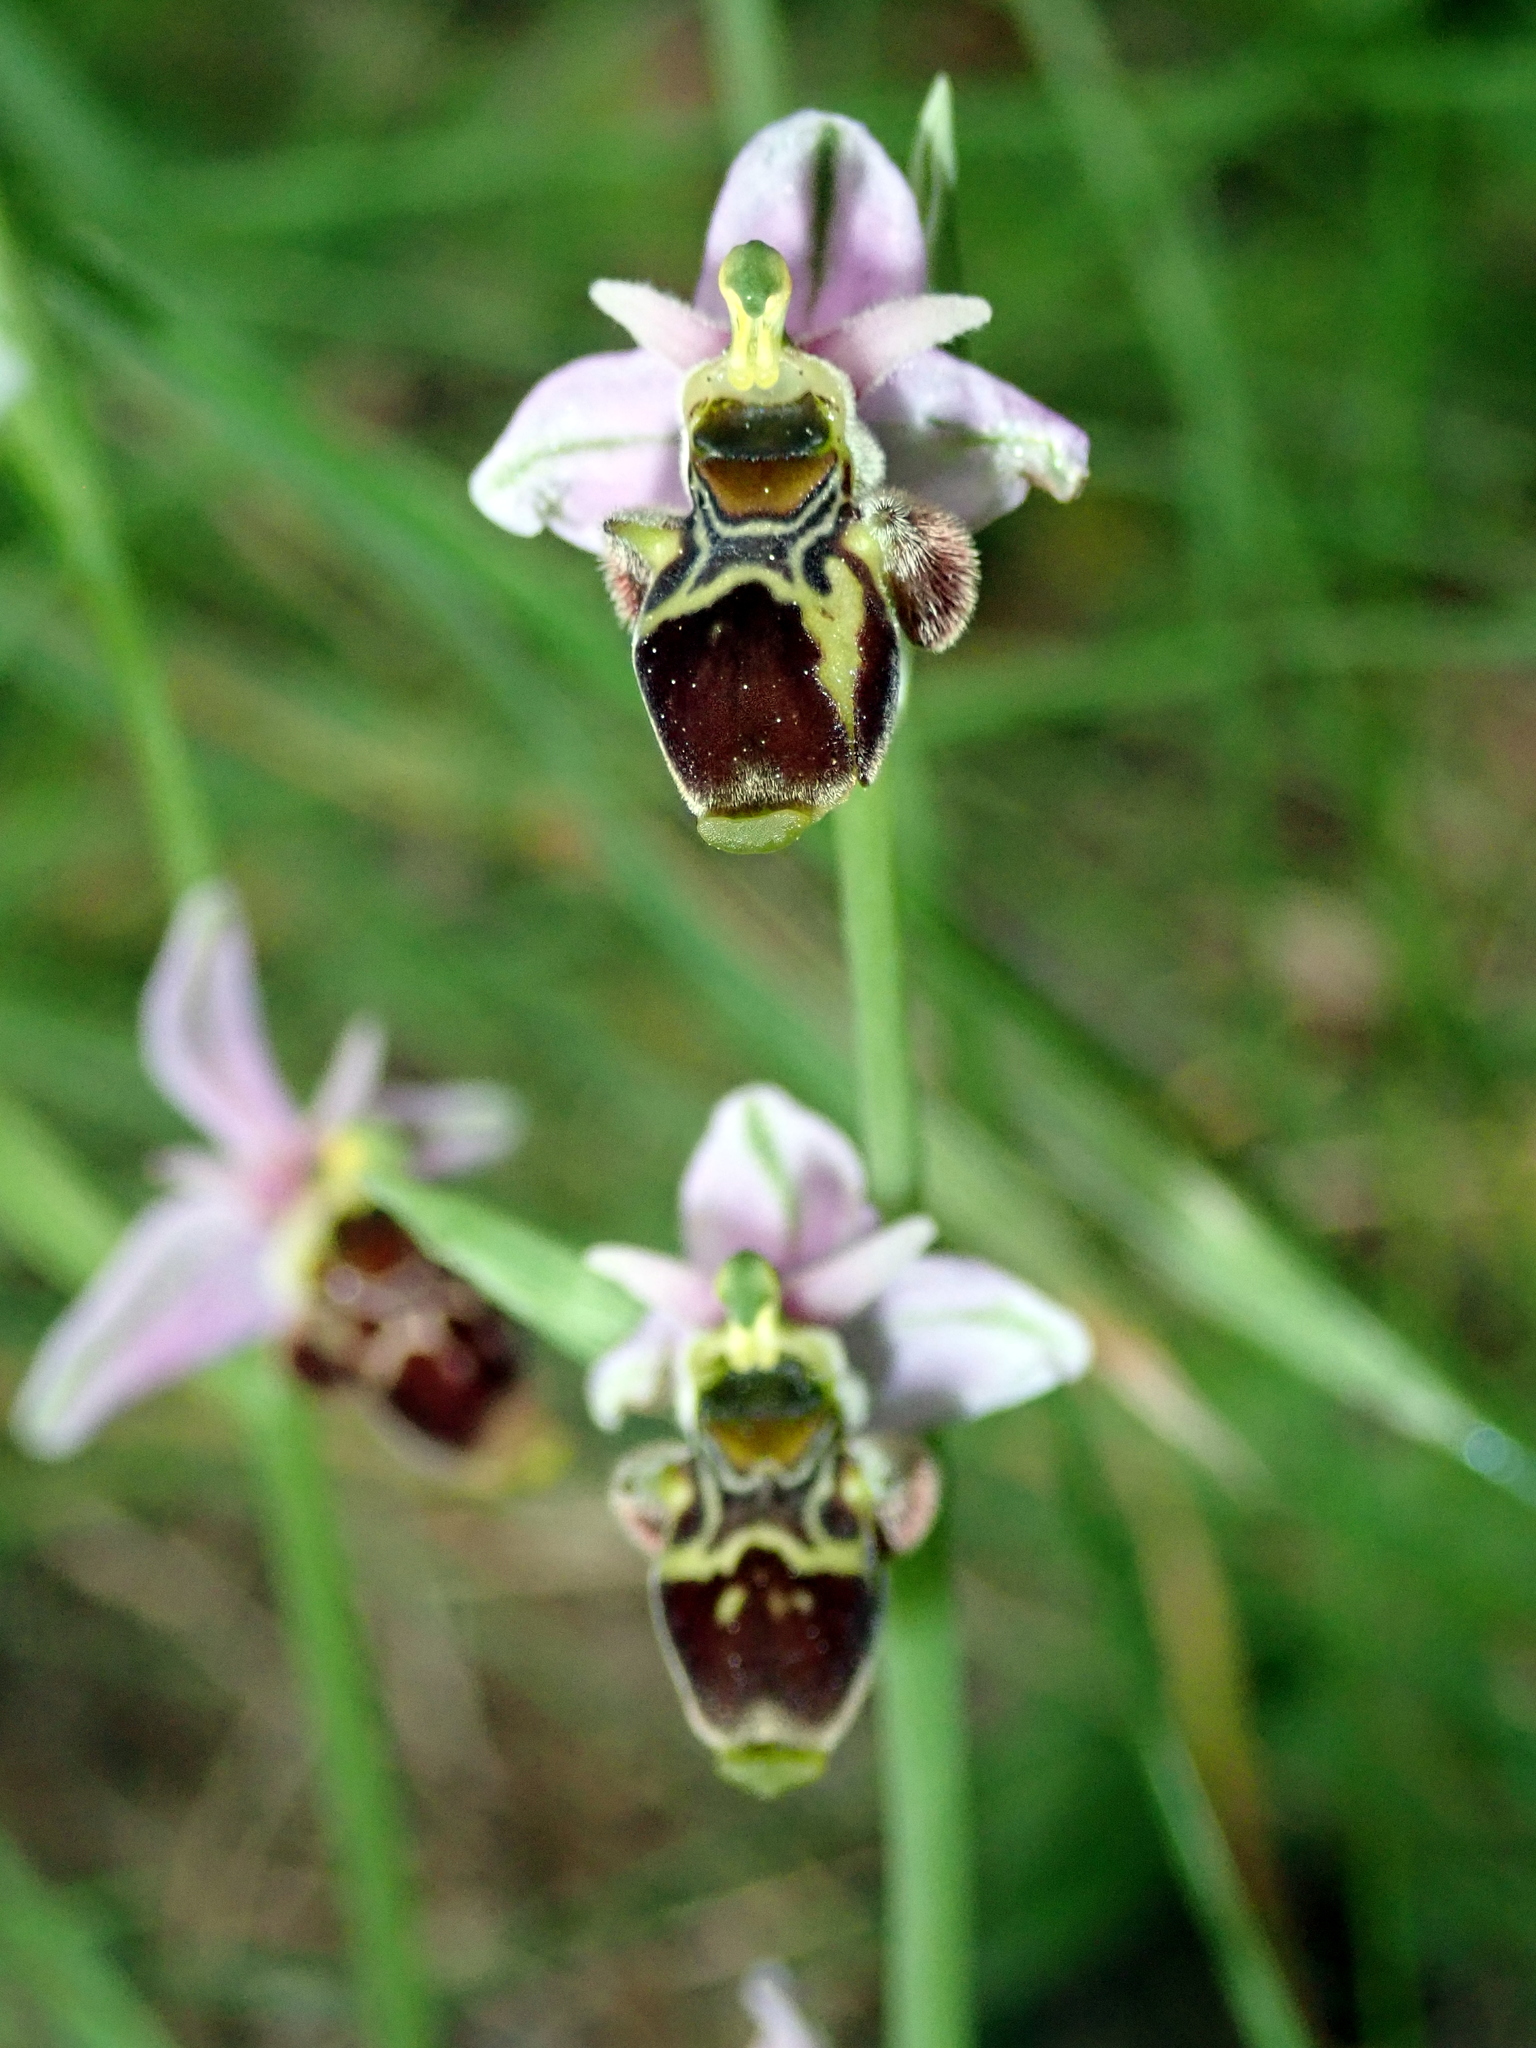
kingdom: Plantae
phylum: Tracheophyta
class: Liliopsida
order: Asparagales
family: Orchidaceae
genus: Ophrys
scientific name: Ophrys scolopax
